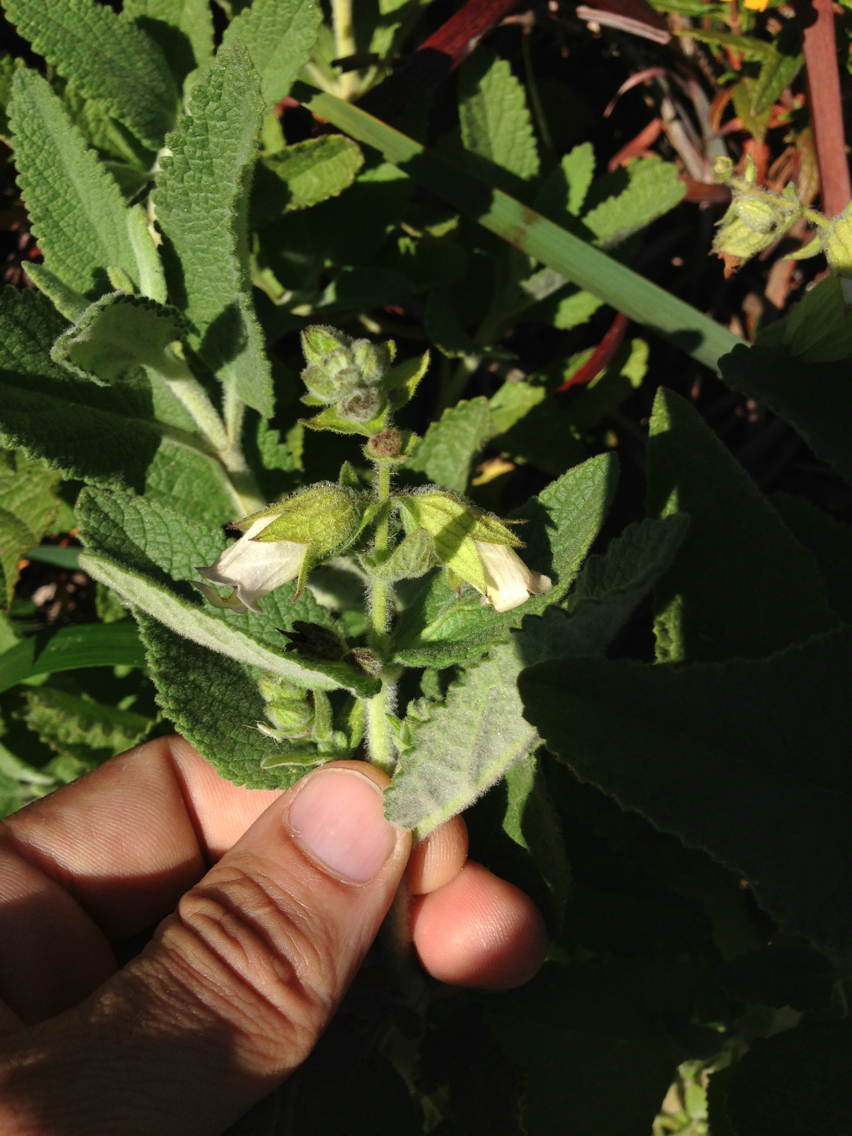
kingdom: Plantae
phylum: Tracheophyta
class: Magnoliopsida
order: Lamiales
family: Lamiaceae
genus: Lepechinia
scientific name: Lepechinia calycina
